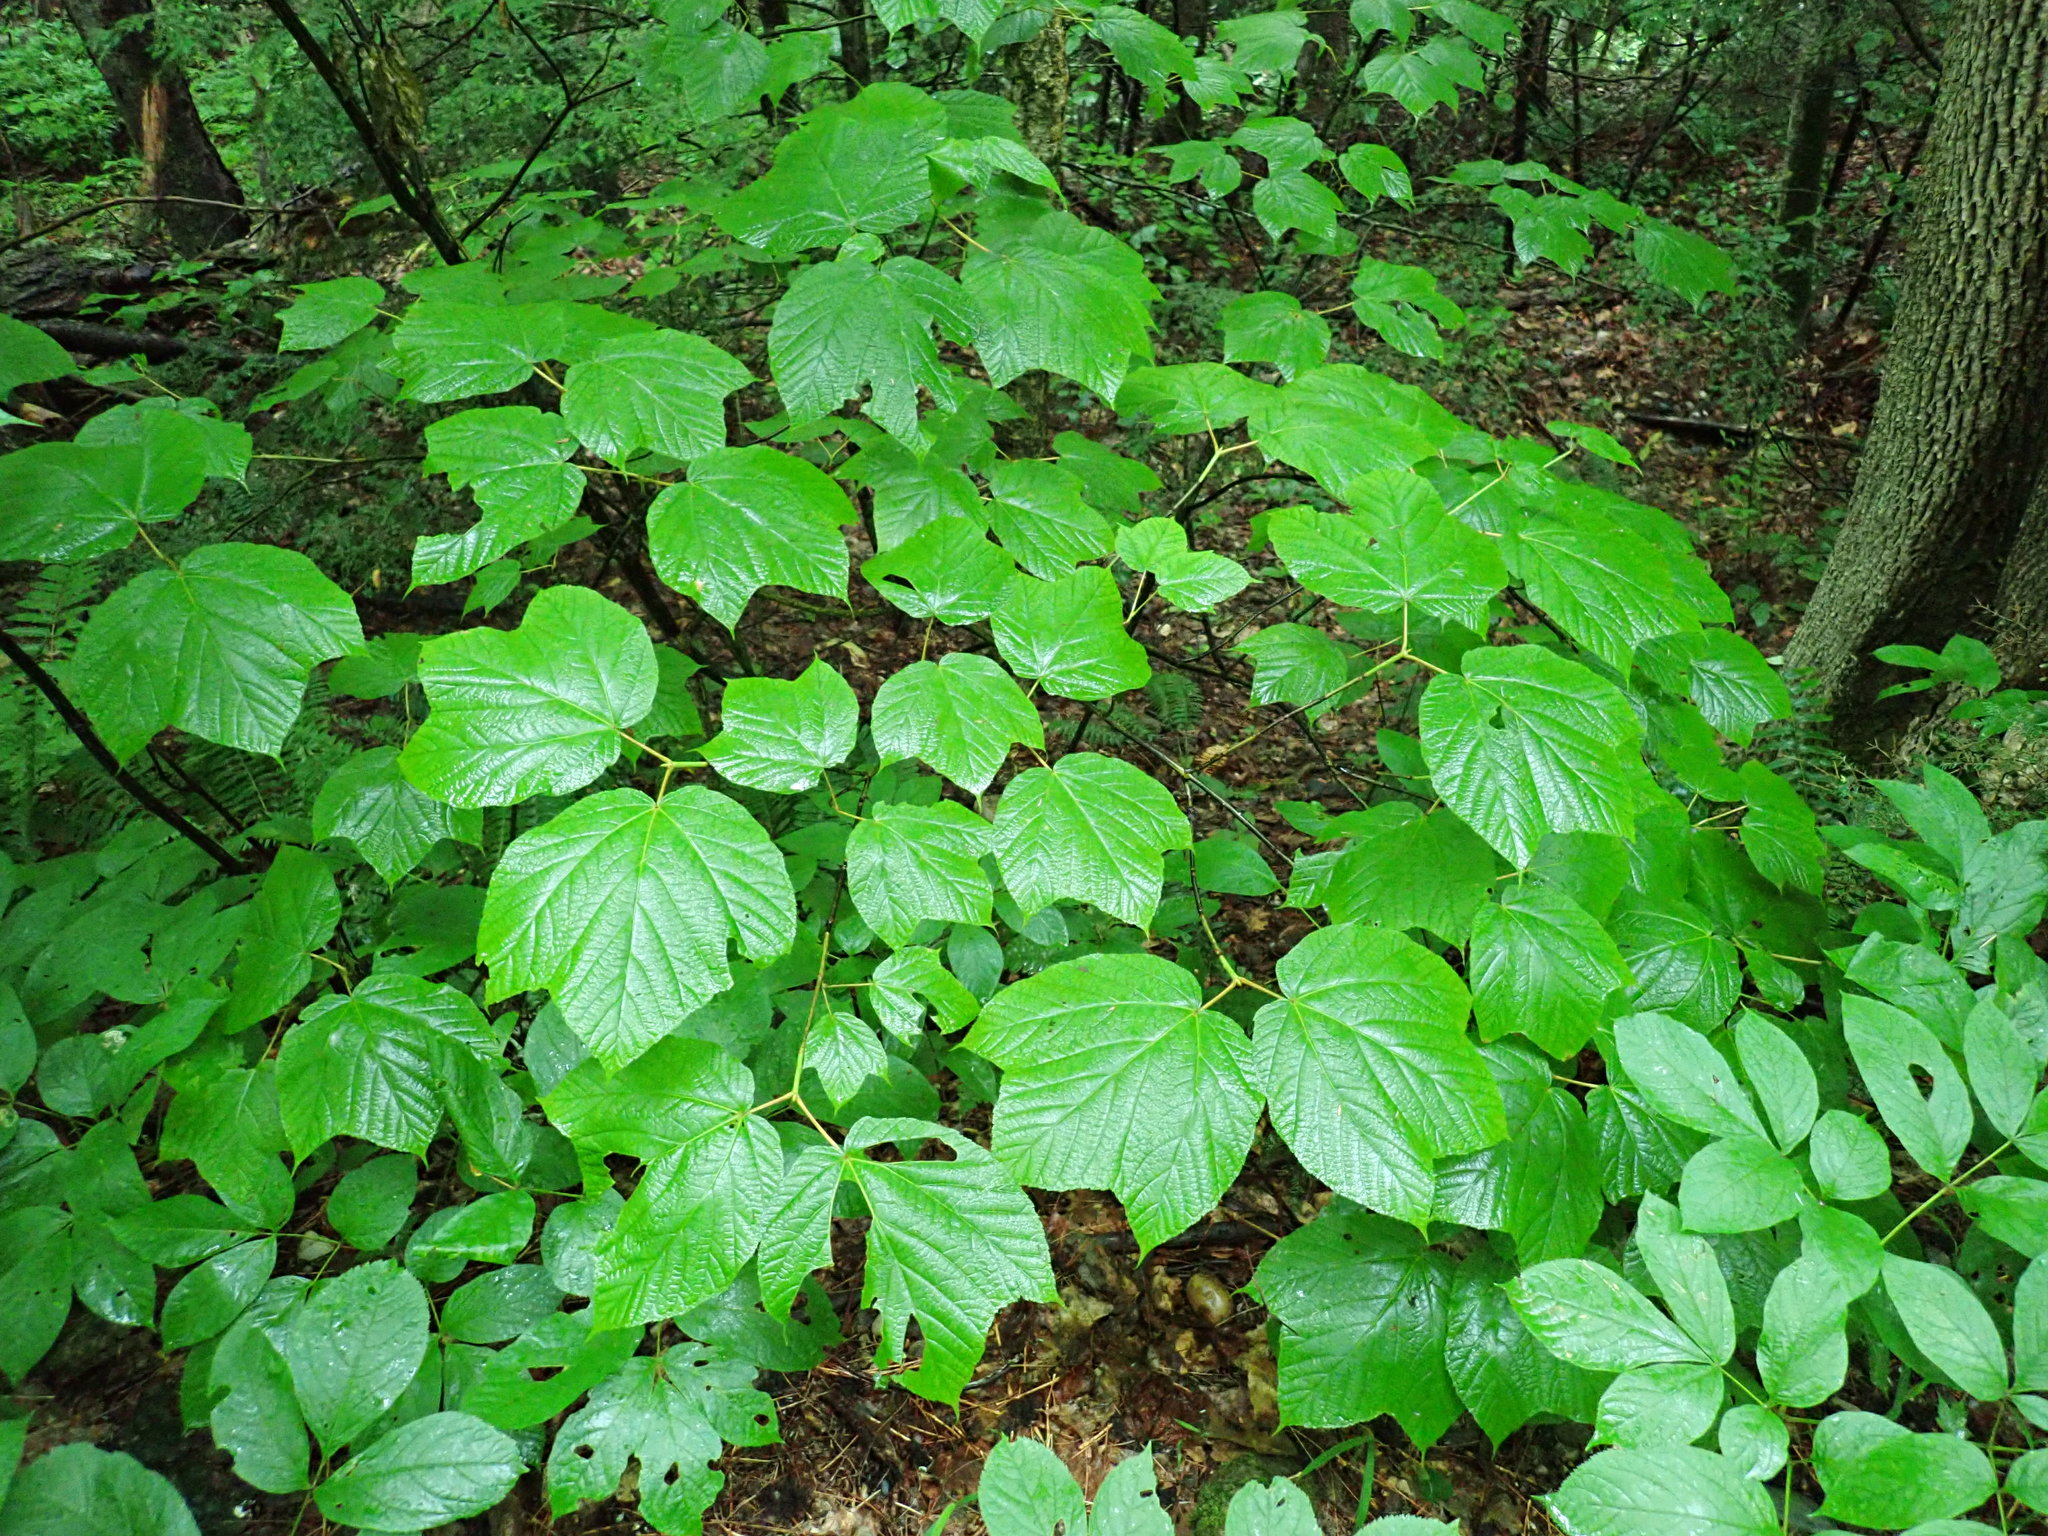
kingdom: Plantae
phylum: Tracheophyta
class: Magnoliopsida
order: Sapindales
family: Sapindaceae
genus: Acer
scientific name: Acer pensylvanicum
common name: Moosewood
